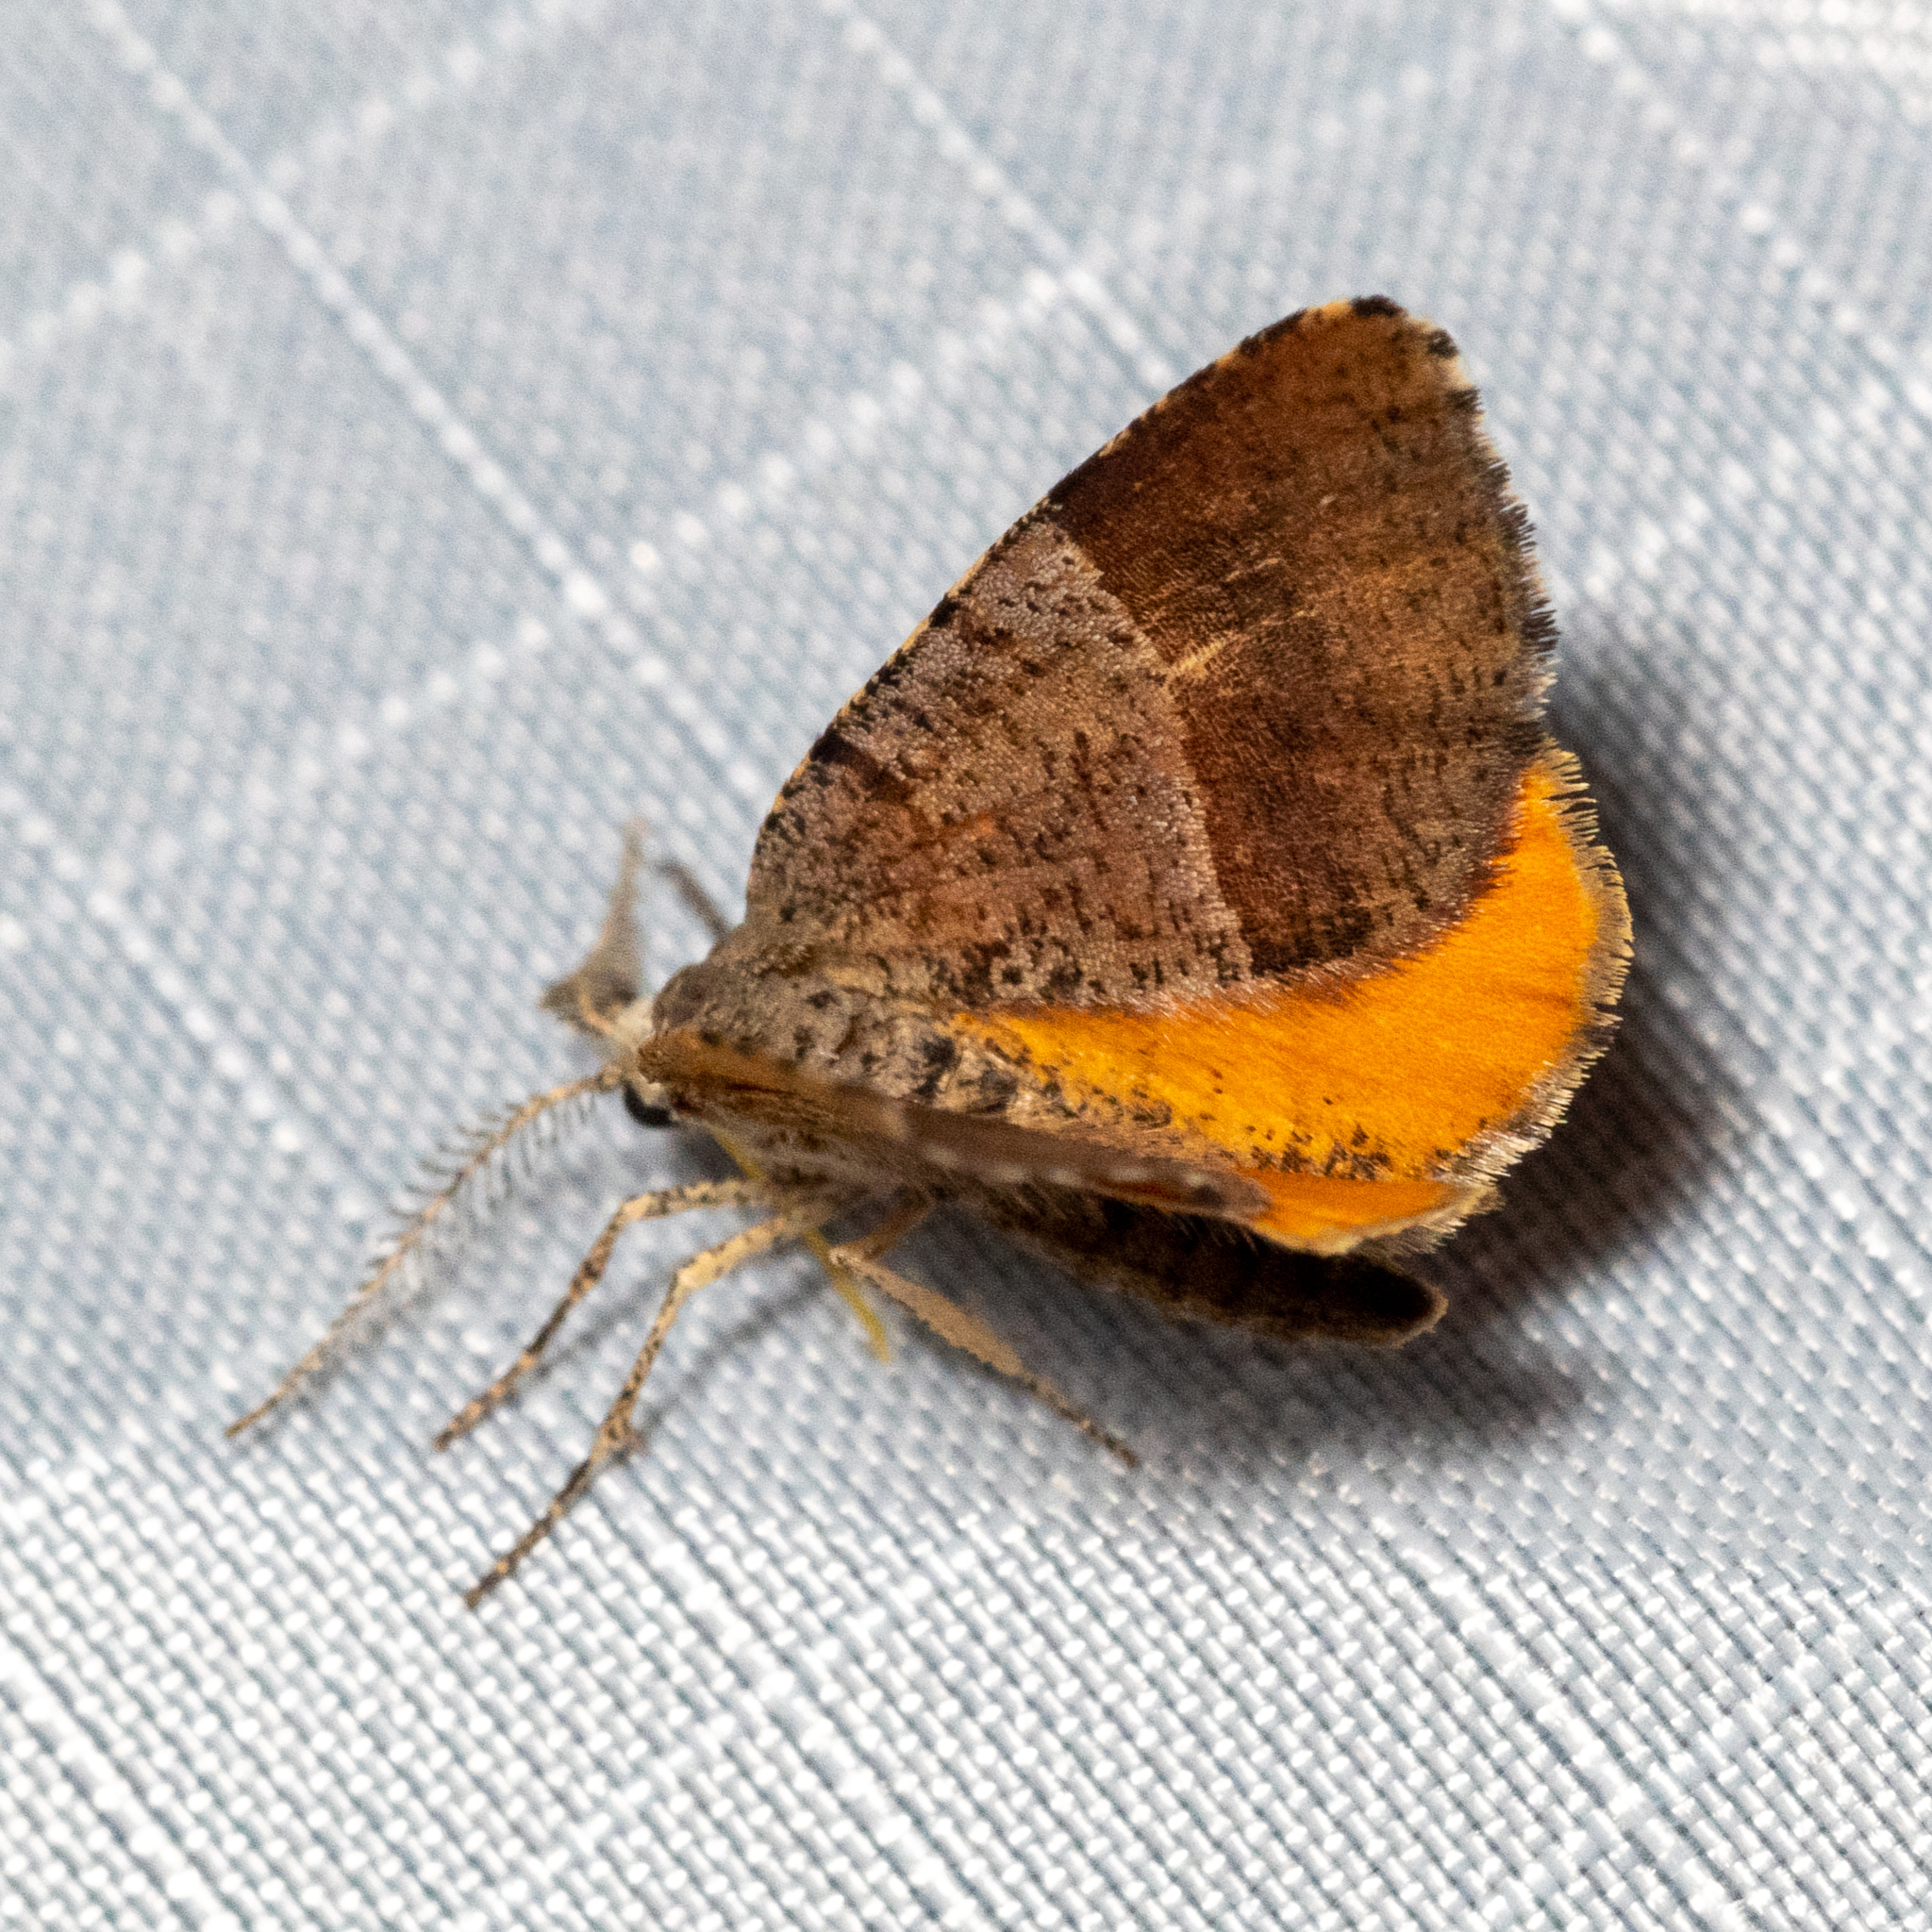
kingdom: Animalia
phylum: Arthropoda
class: Insecta
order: Lepidoptera
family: Geometridae
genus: Mellilla
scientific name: Mellilla xanthometata
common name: Orange wing moth
